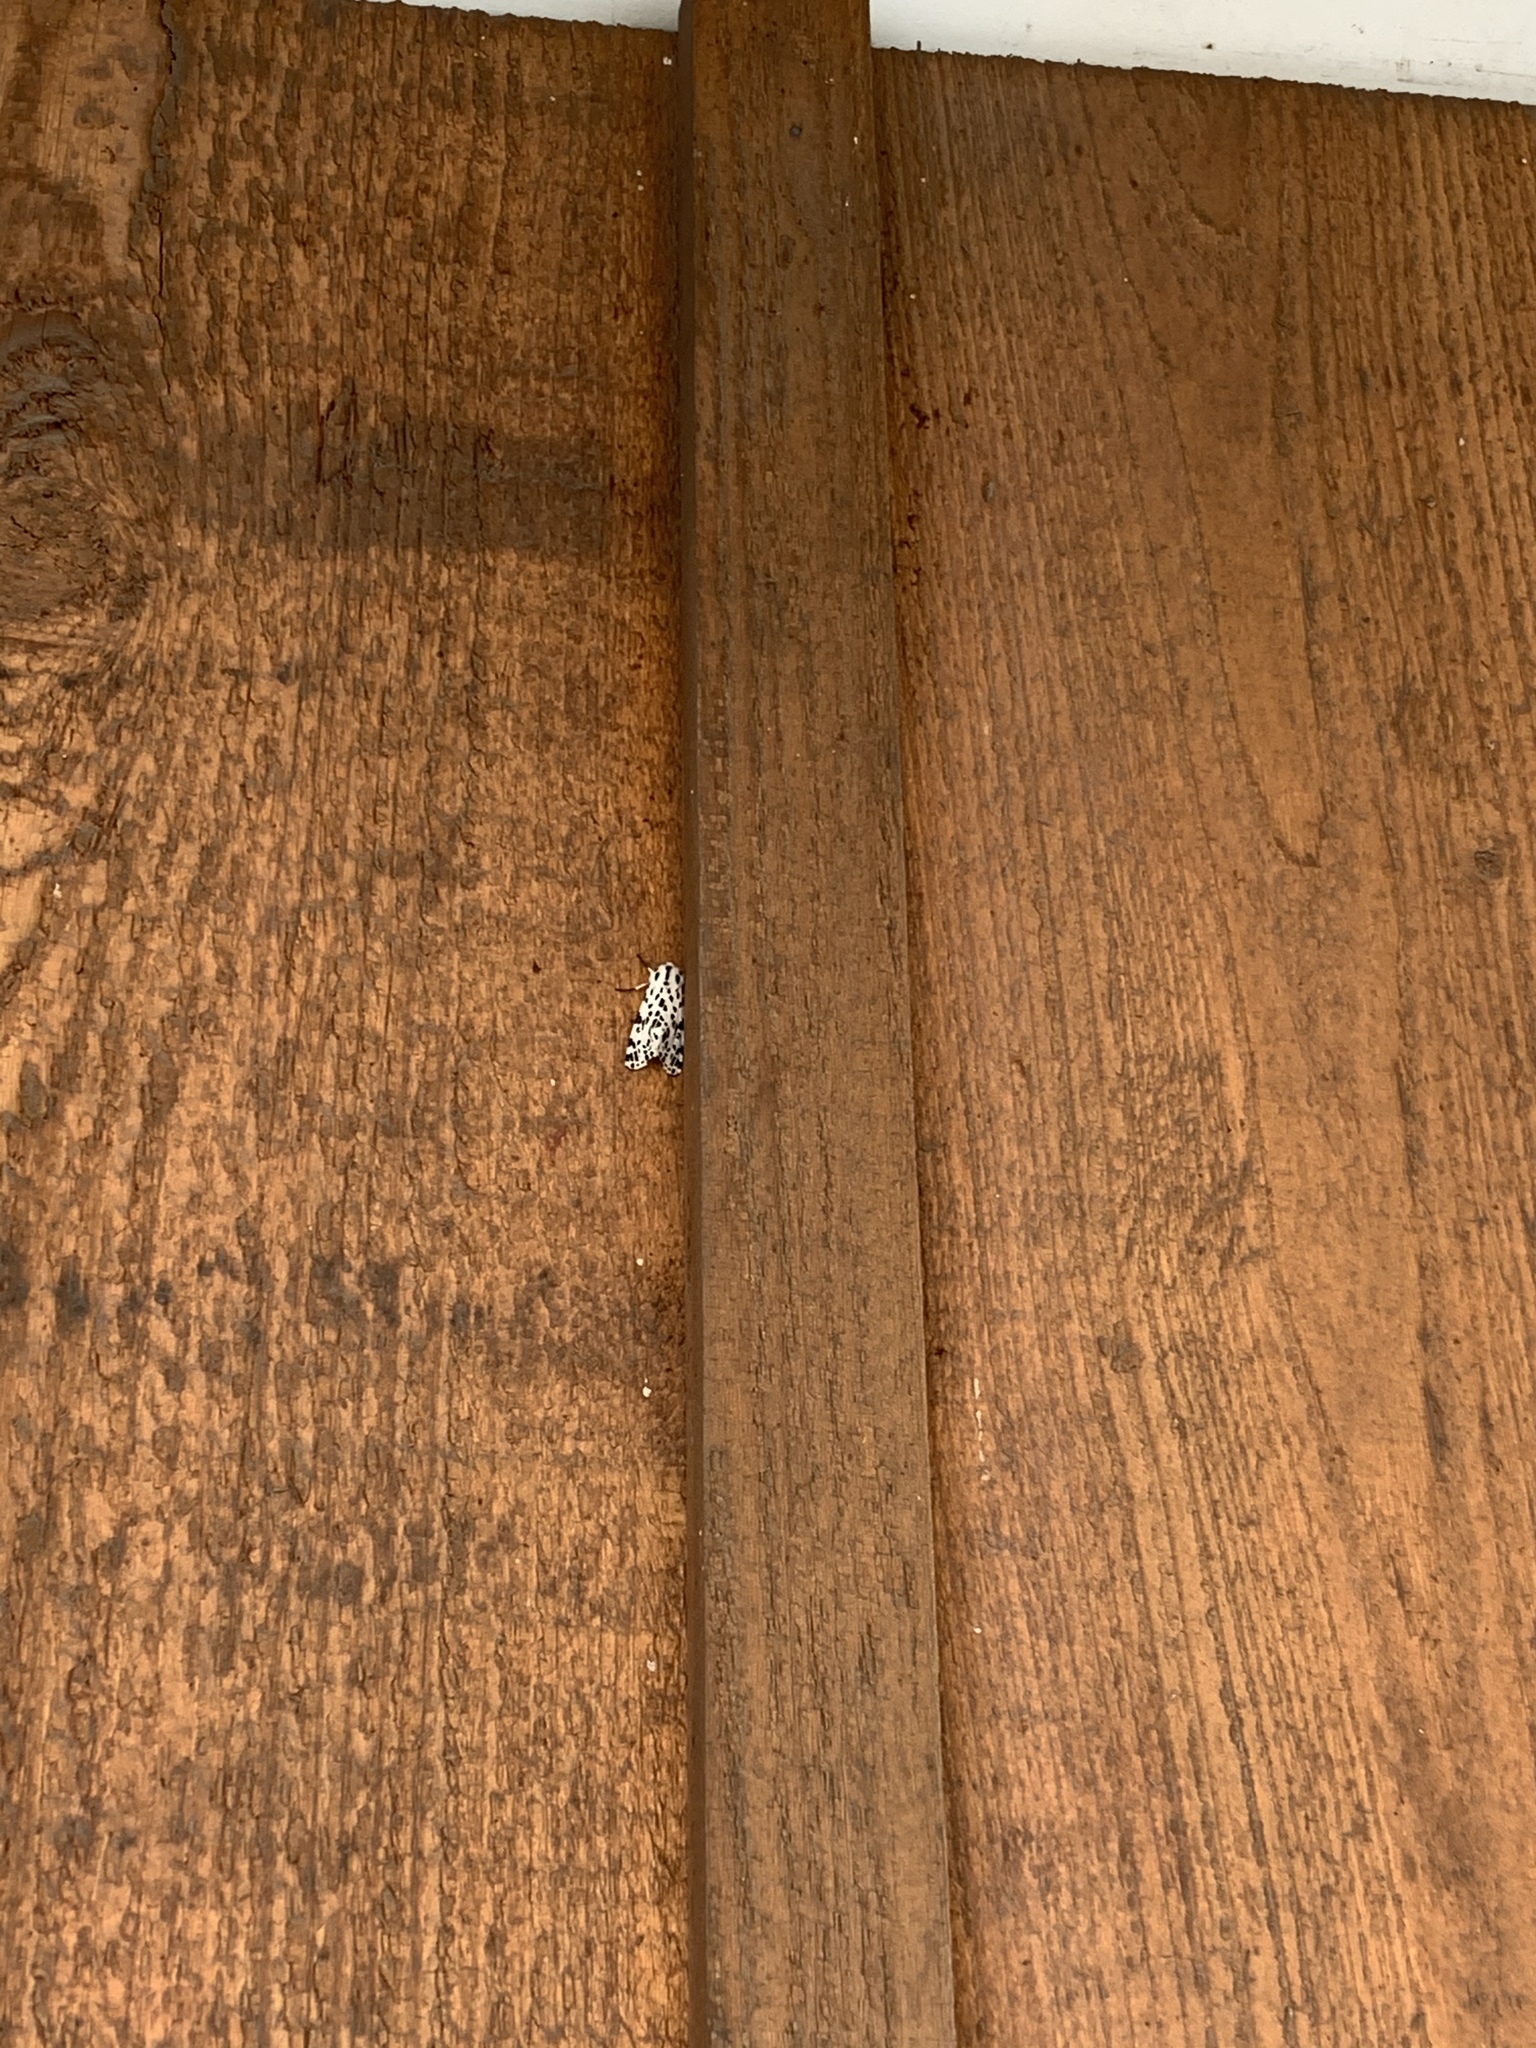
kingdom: Animalia
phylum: Arthropoda
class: Insecta
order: Lepidoptera
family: Erebidae
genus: Hypercompe
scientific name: Hypercompe permaculata
